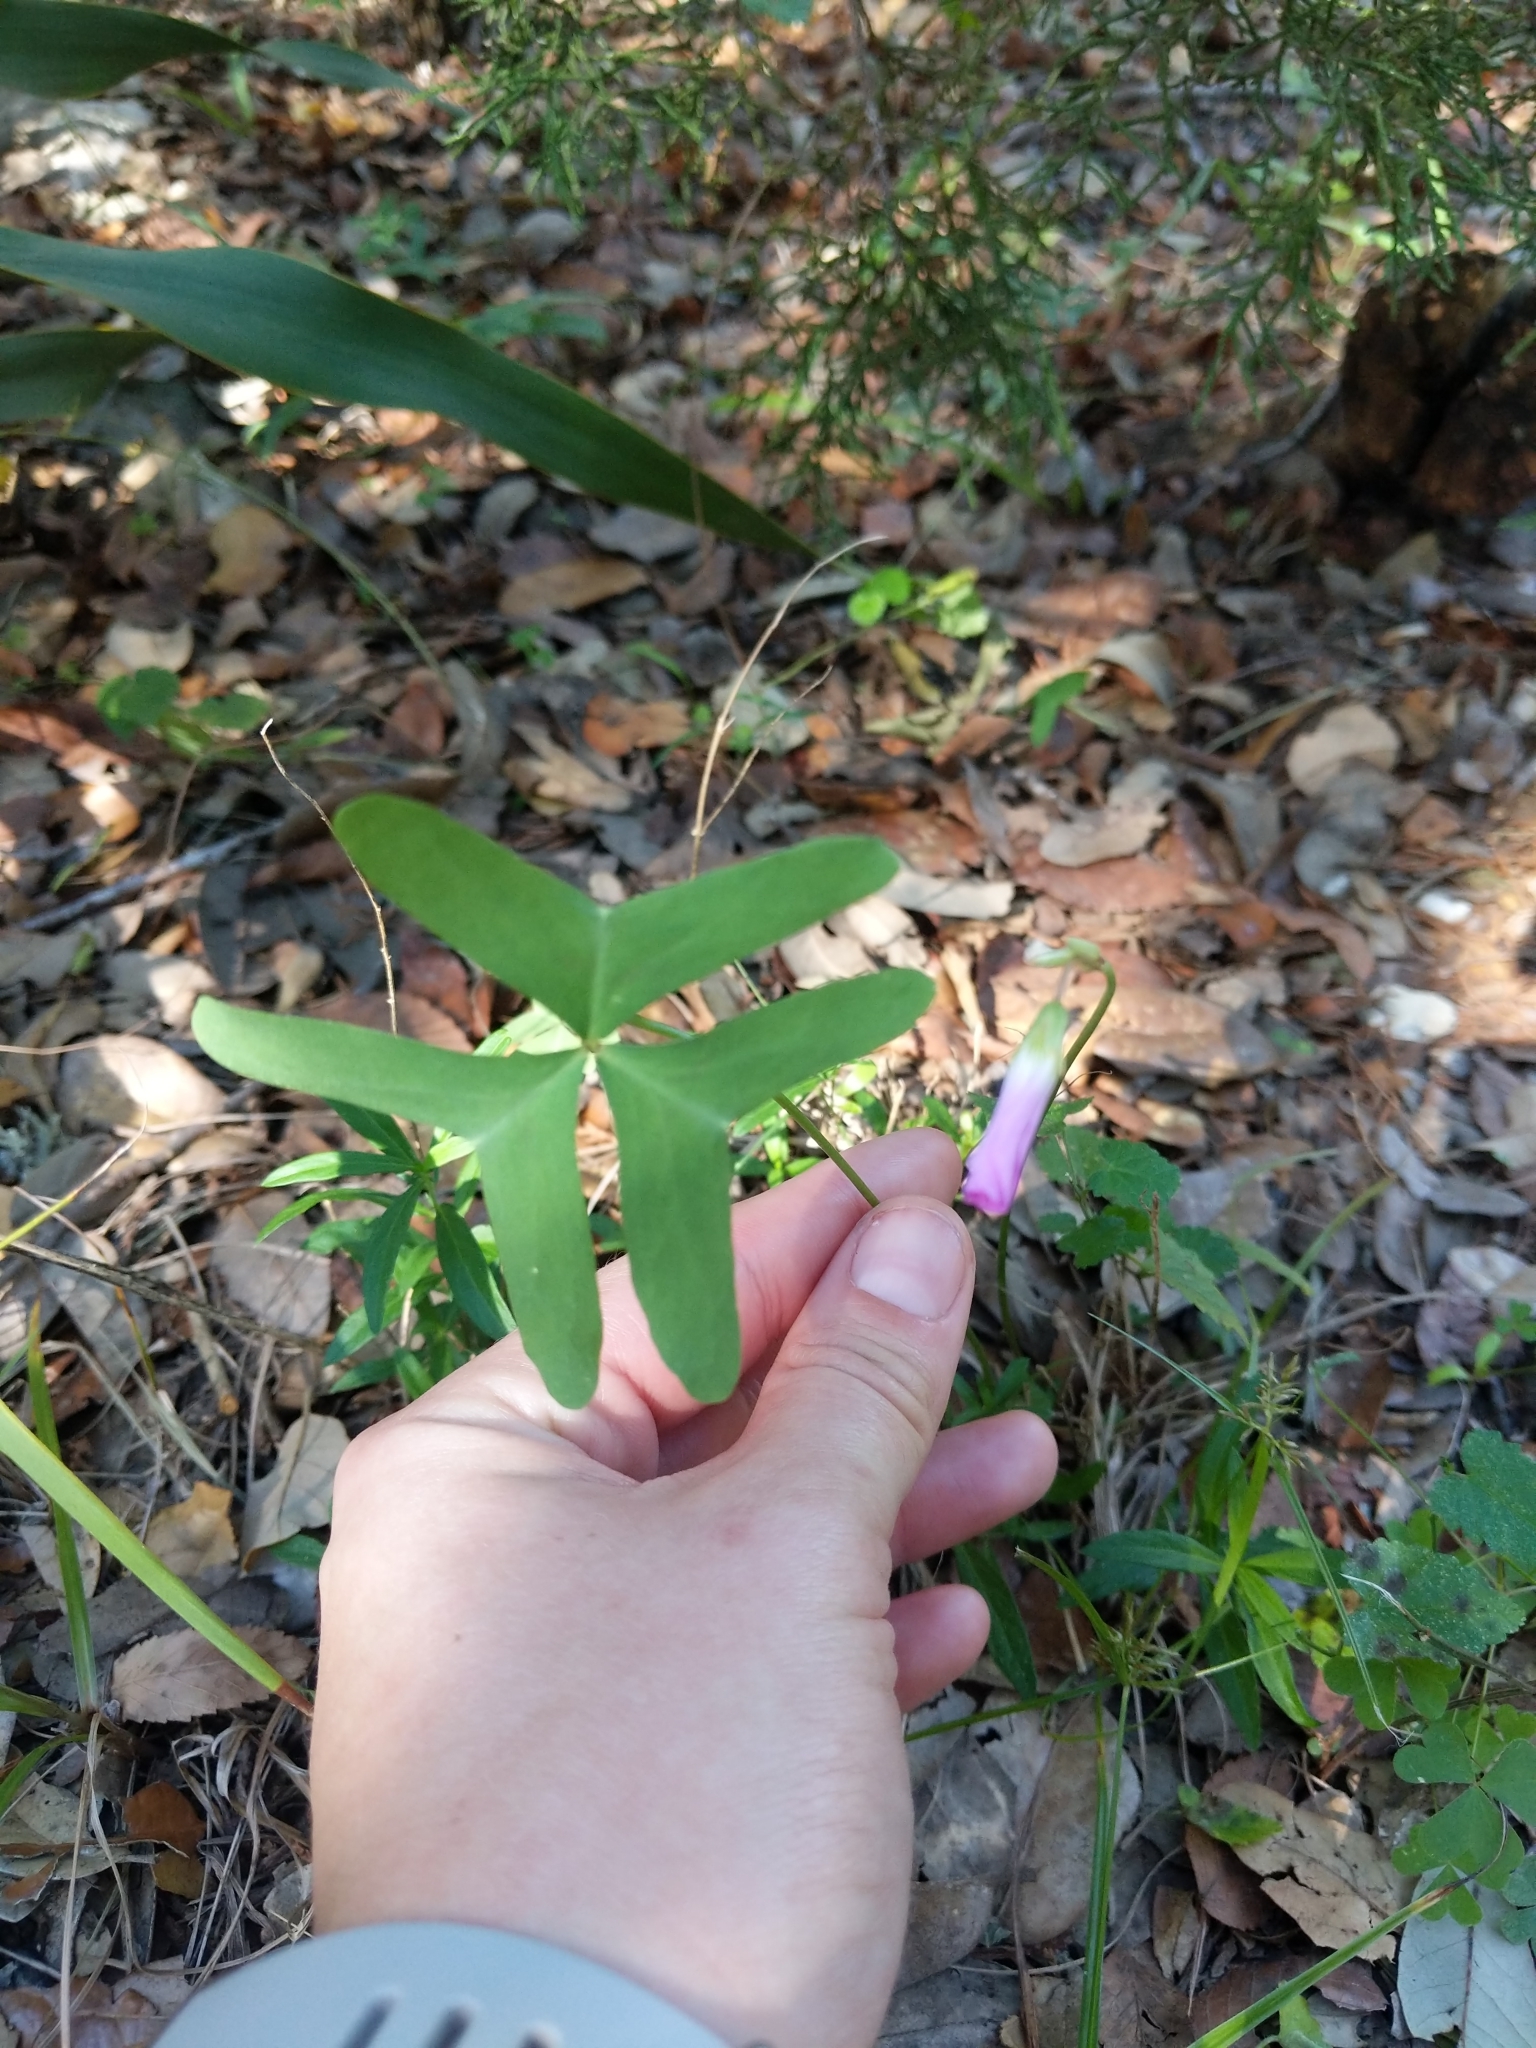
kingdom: Plantae
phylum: Tracheophyta
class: Magnoliopsida
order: Oxalidales
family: Oxalidaceae
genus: Oxalis
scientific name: Oxalis drummondii
